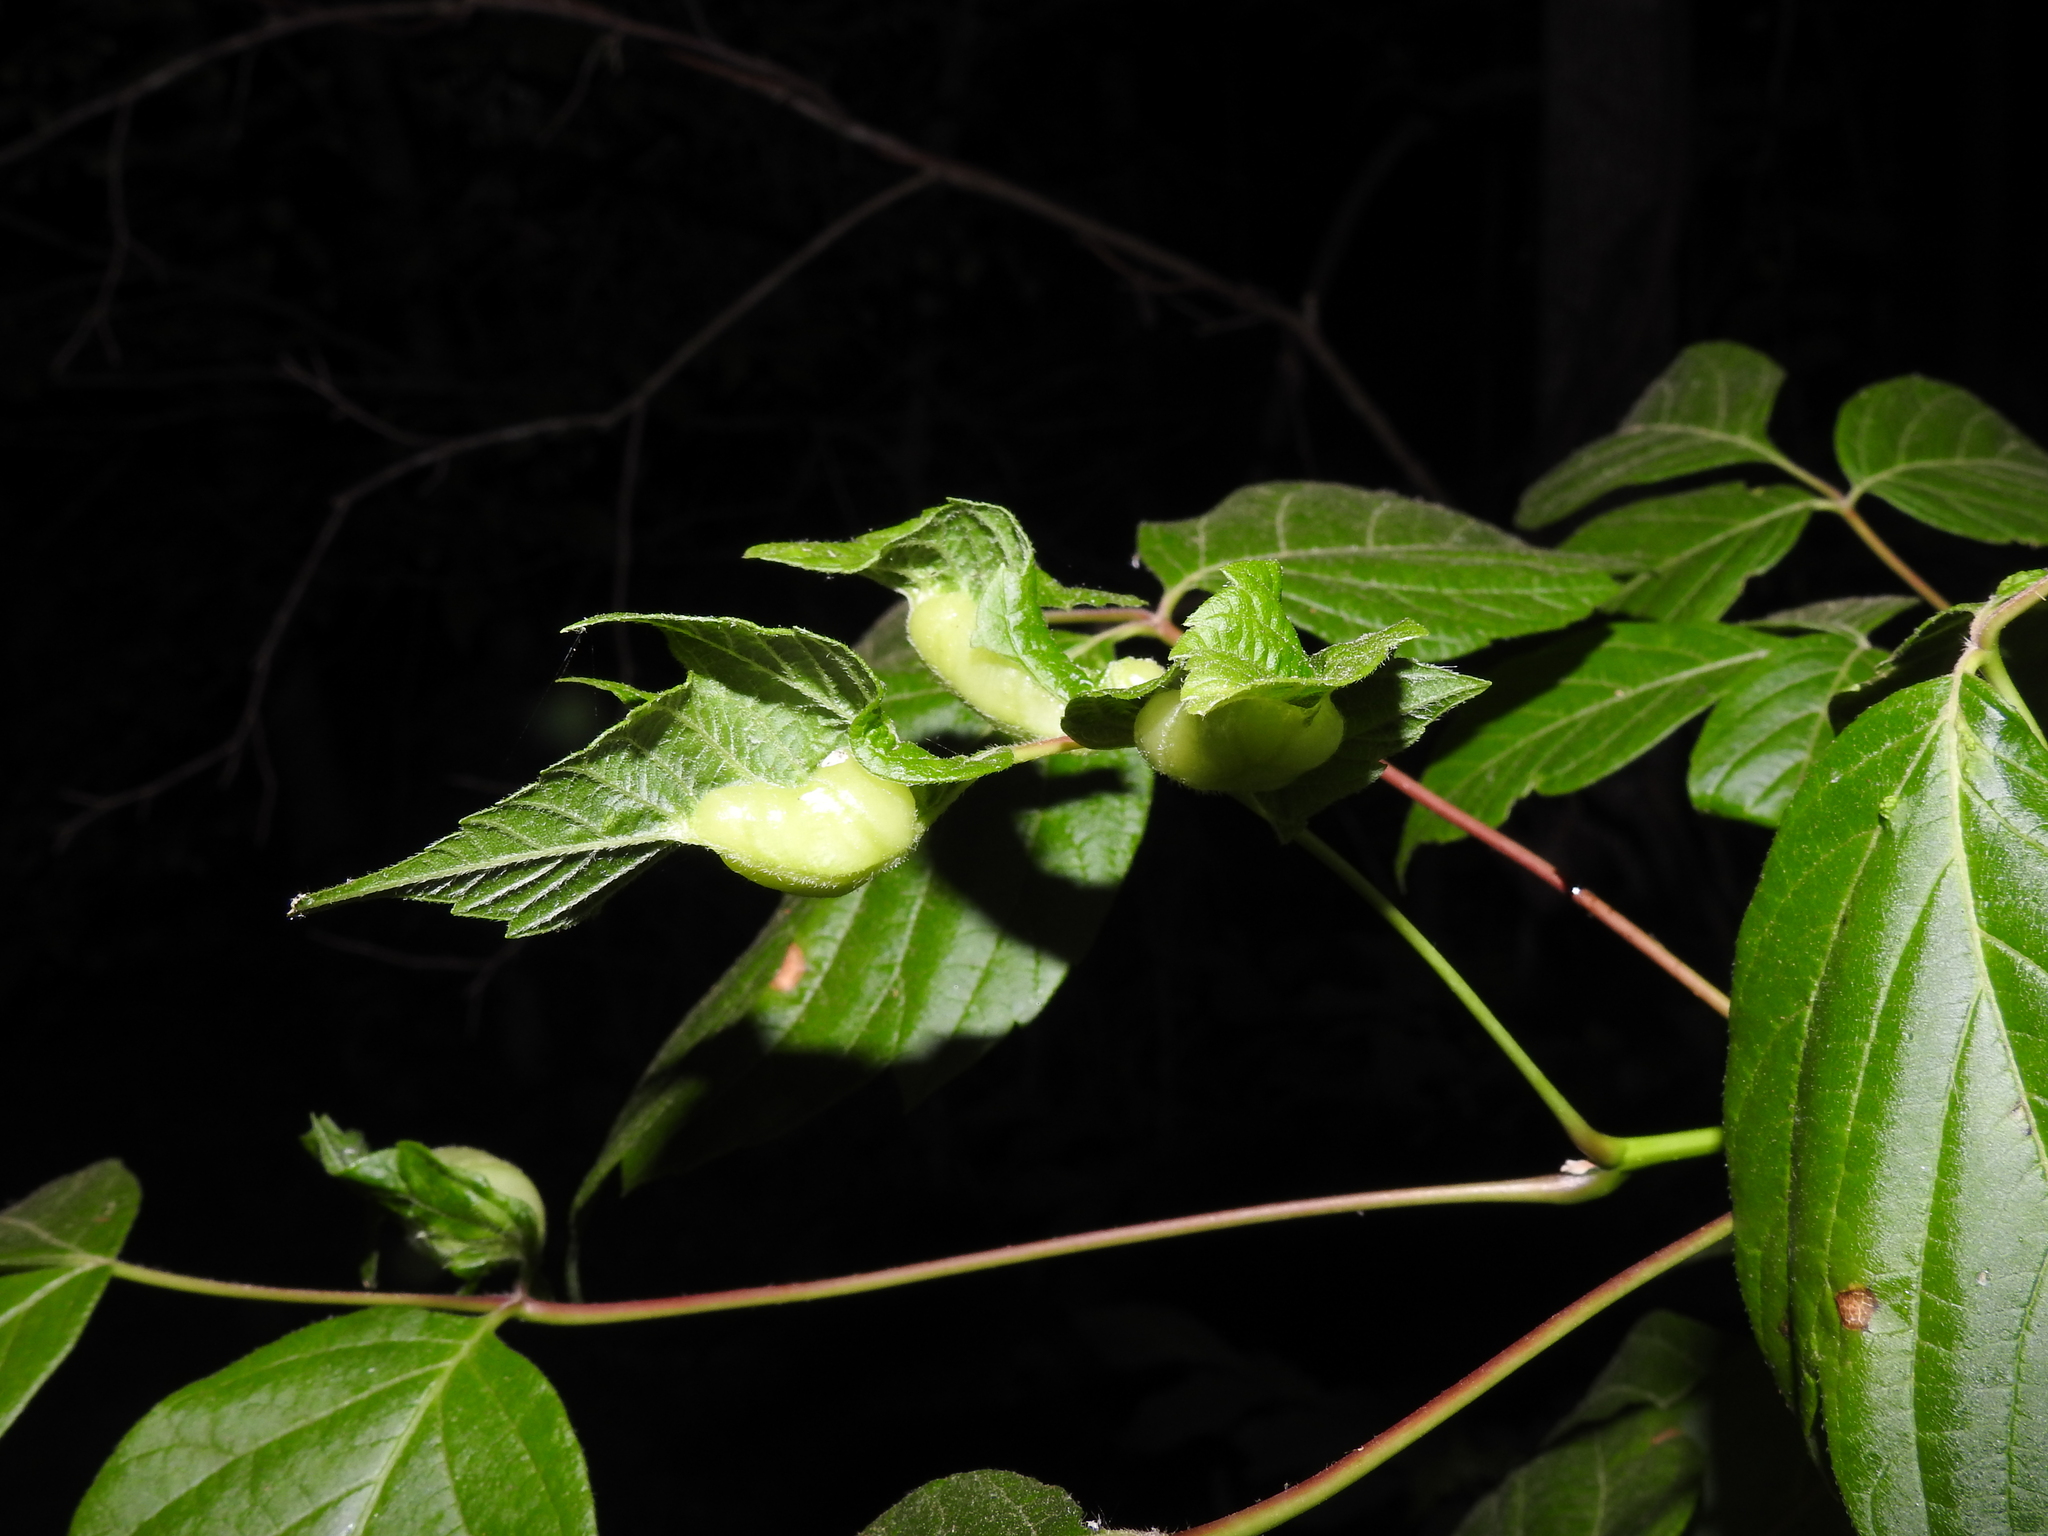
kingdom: Animalia
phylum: Arthropoda
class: Insecta
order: Diptera
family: Cecidomyiidae
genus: Contarinia
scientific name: Contarinia negundinis
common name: Boxelder budgall midge
